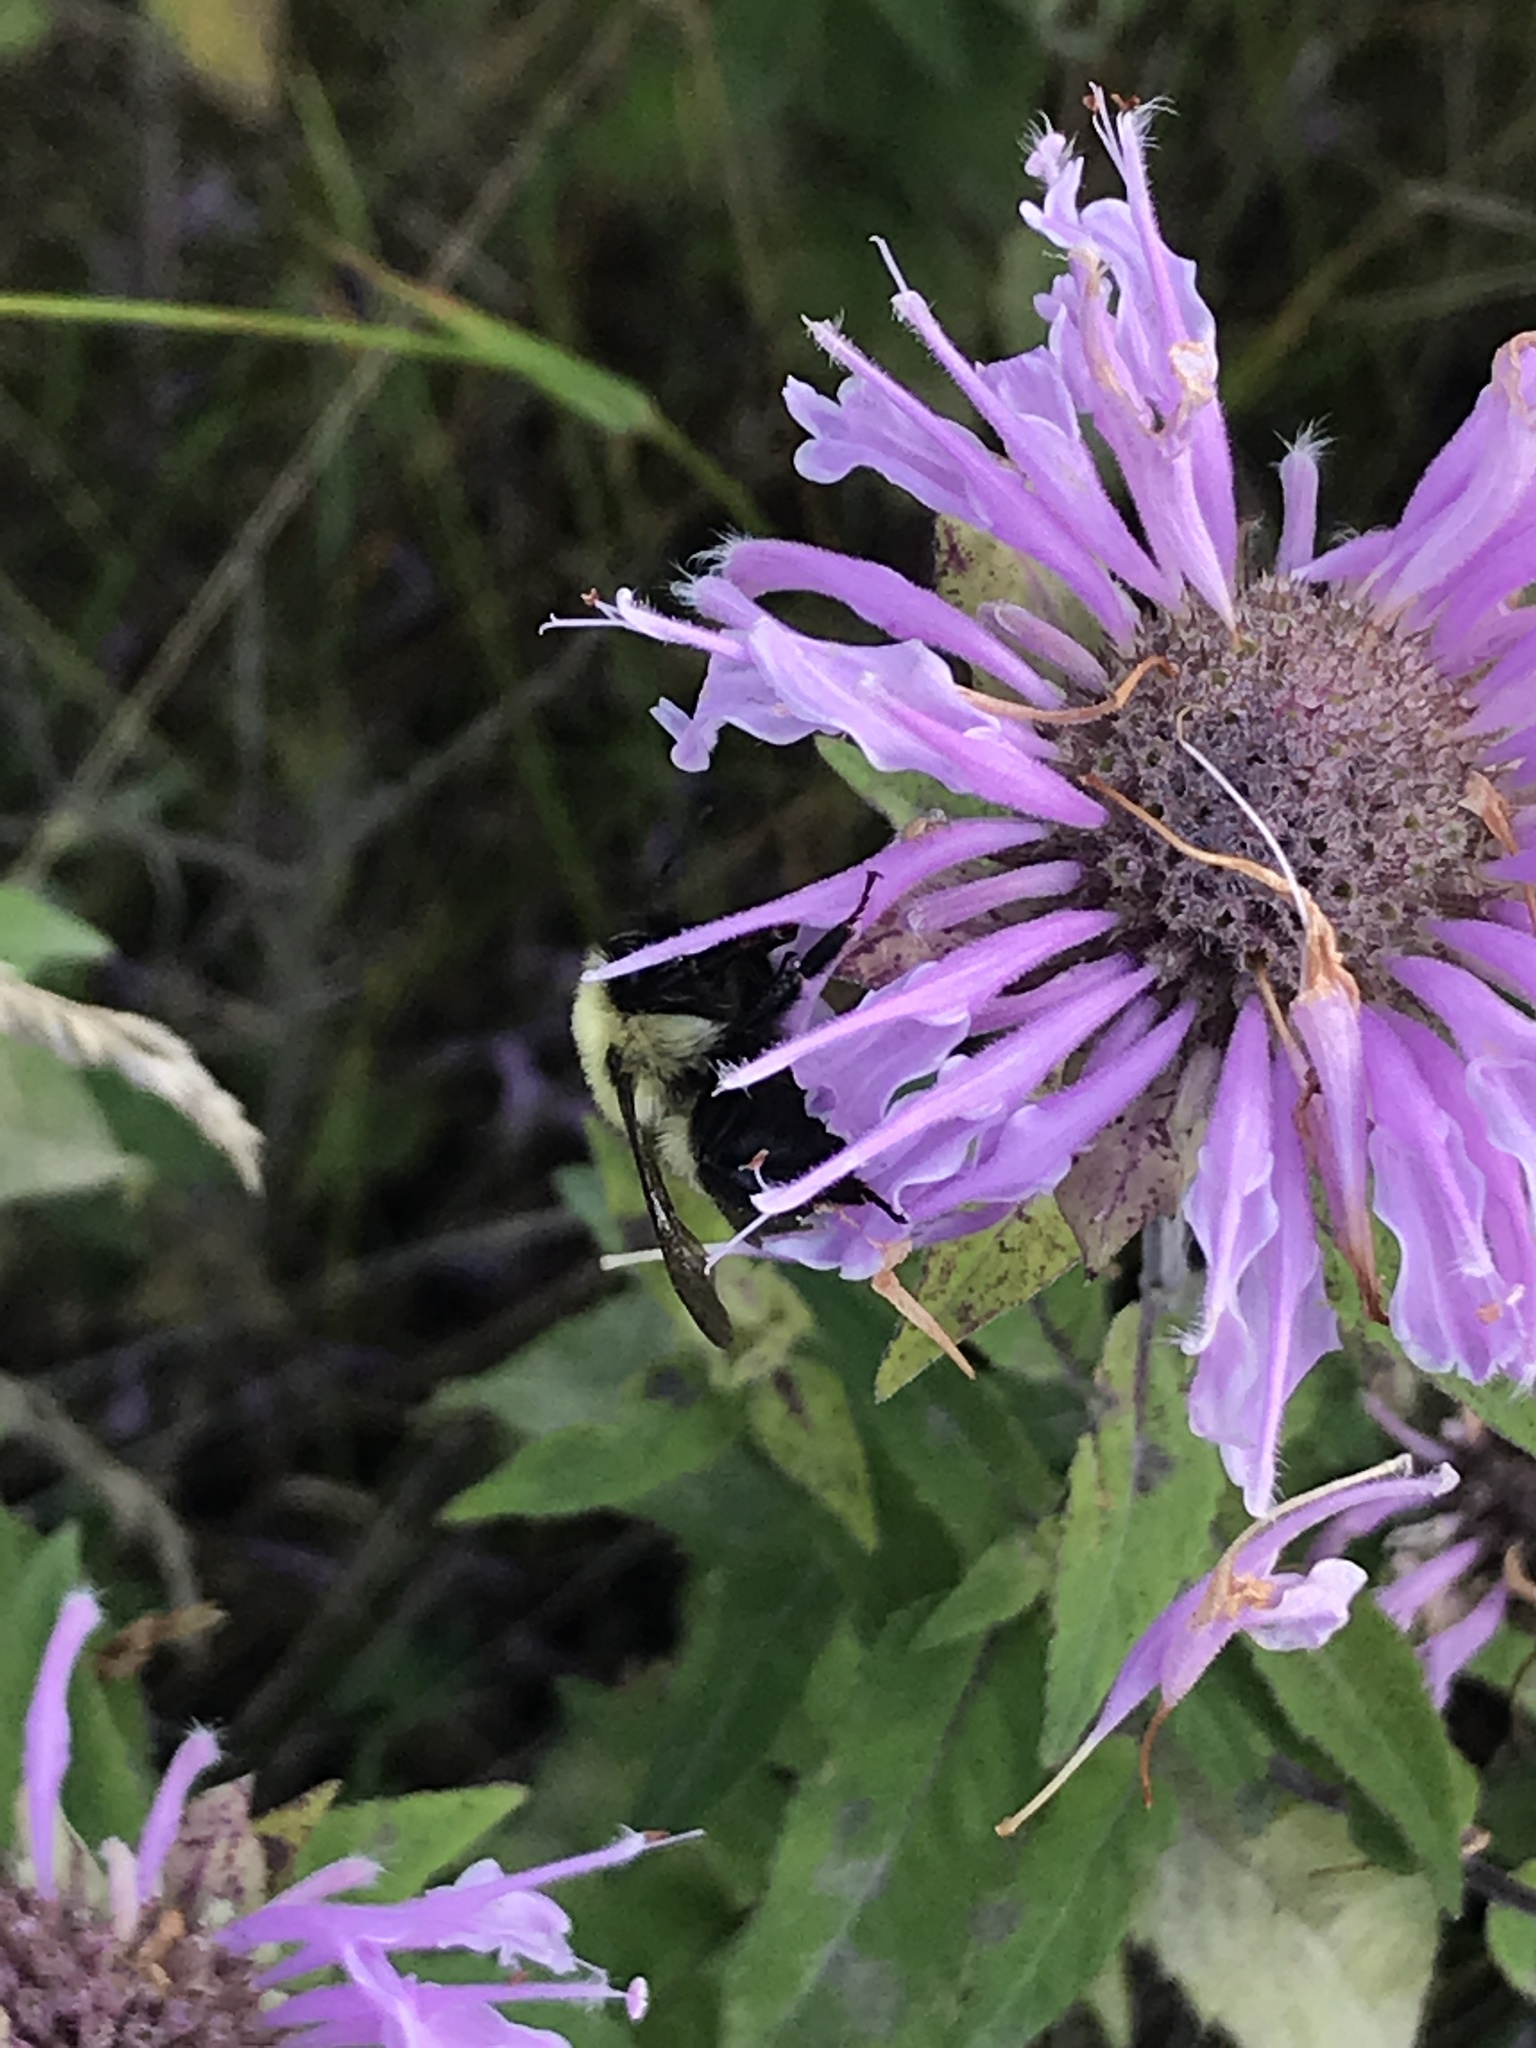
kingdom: Animalia
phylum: Arthropoda
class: Insecta
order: Hymenoptera
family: Apidae
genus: Bombus
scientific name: Bombus bimaculatus
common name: Two-spotted bumble bee
